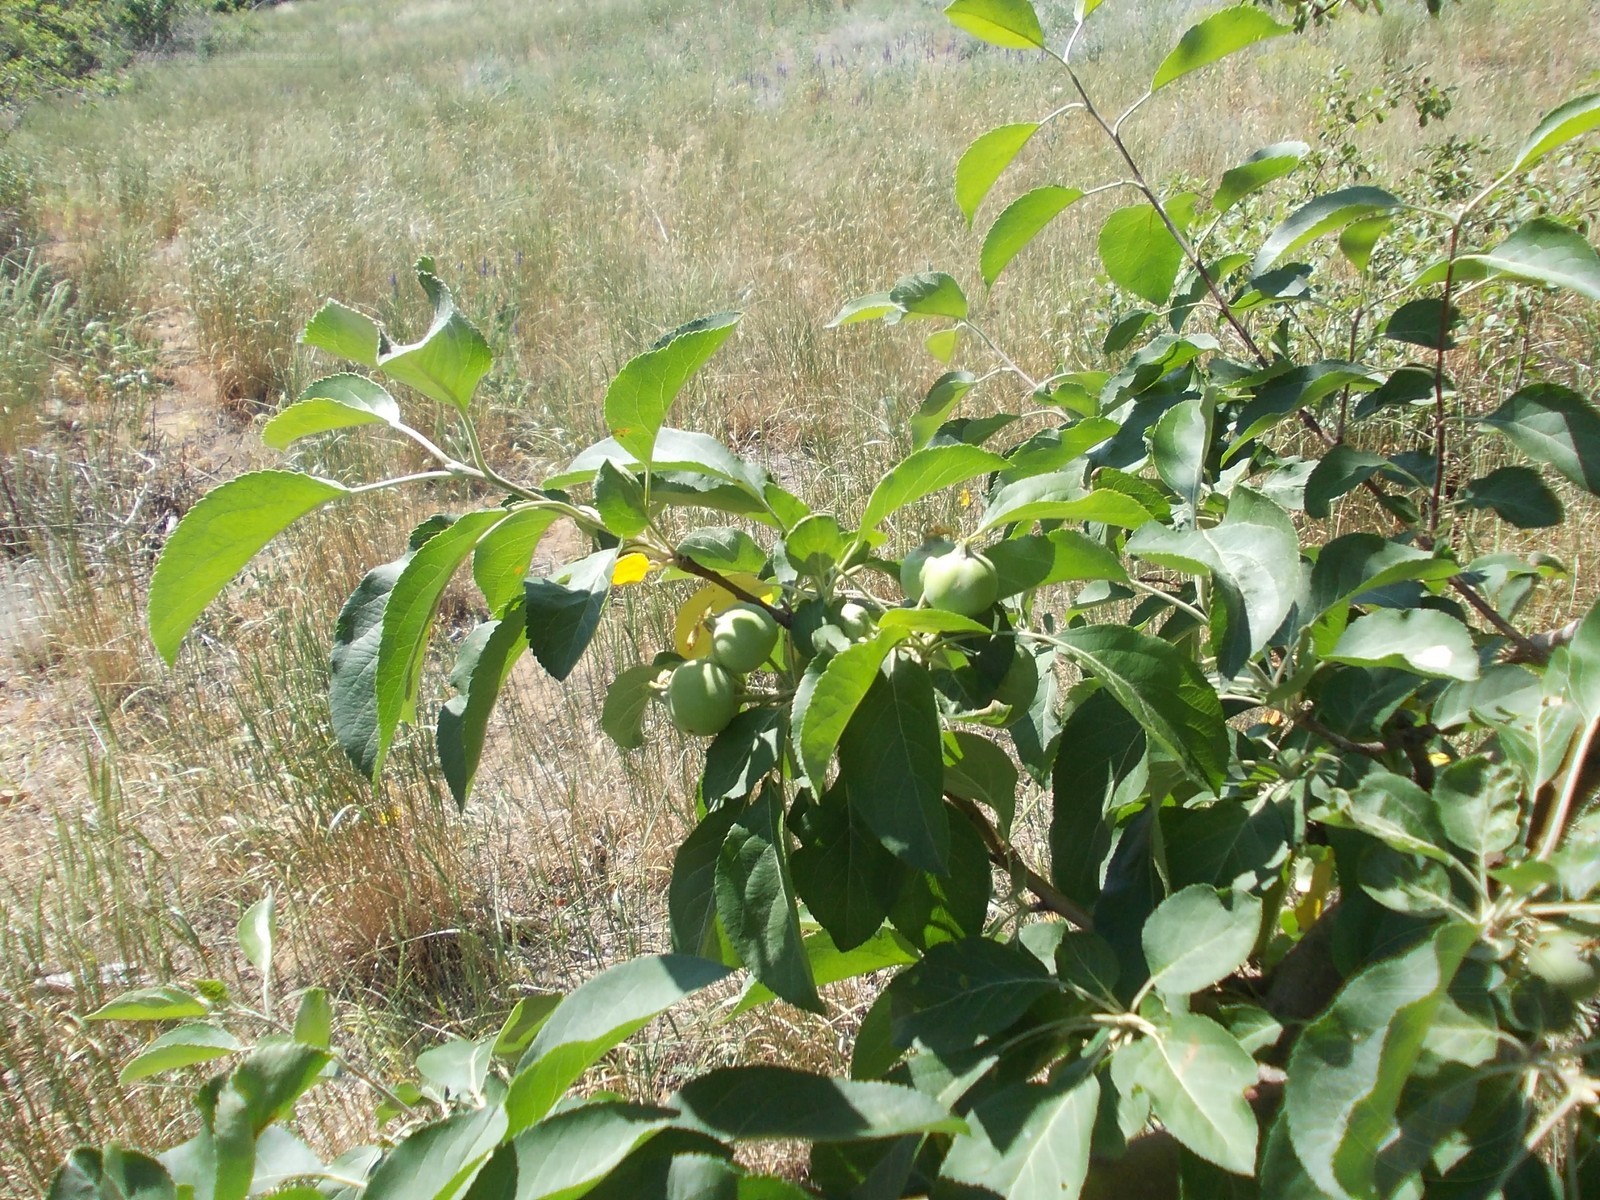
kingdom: Plantae
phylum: Tracheophyta
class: Magnoliopsida
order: Rosales
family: Rosaceae
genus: Malus
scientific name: Malus domestica
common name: Apple
